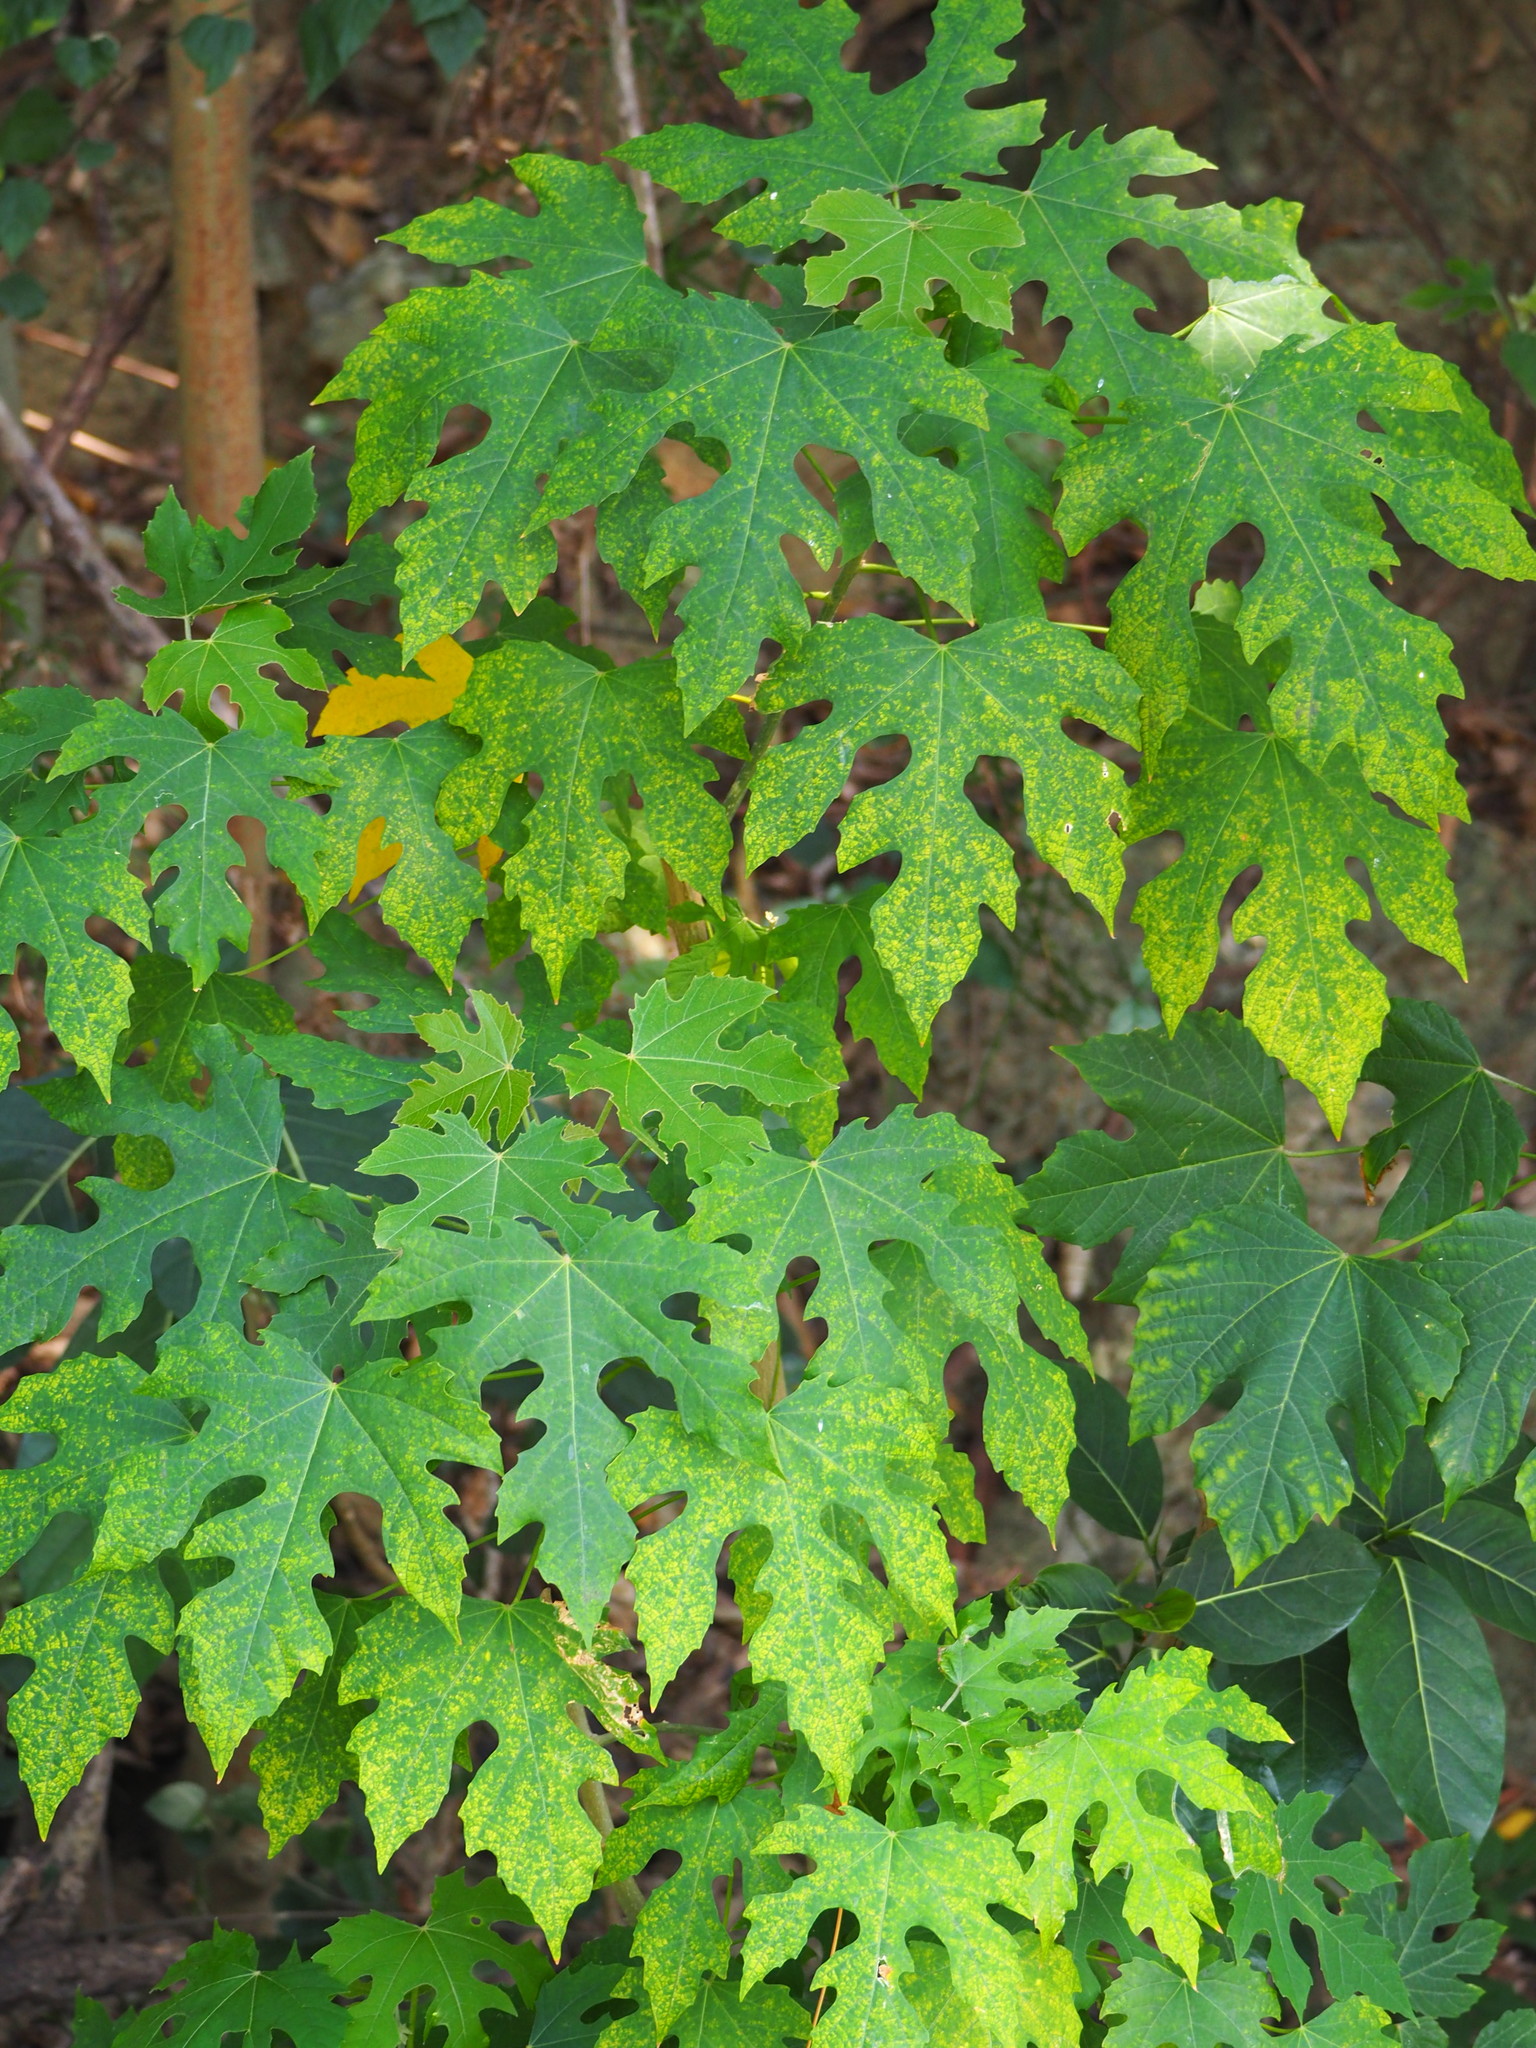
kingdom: Plantae
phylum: Tracheophyta
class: Magnoliopsida
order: Malpighiales
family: Euphorbiaceae
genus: Melanolepis
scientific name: Melanolepis multiglandulosa
